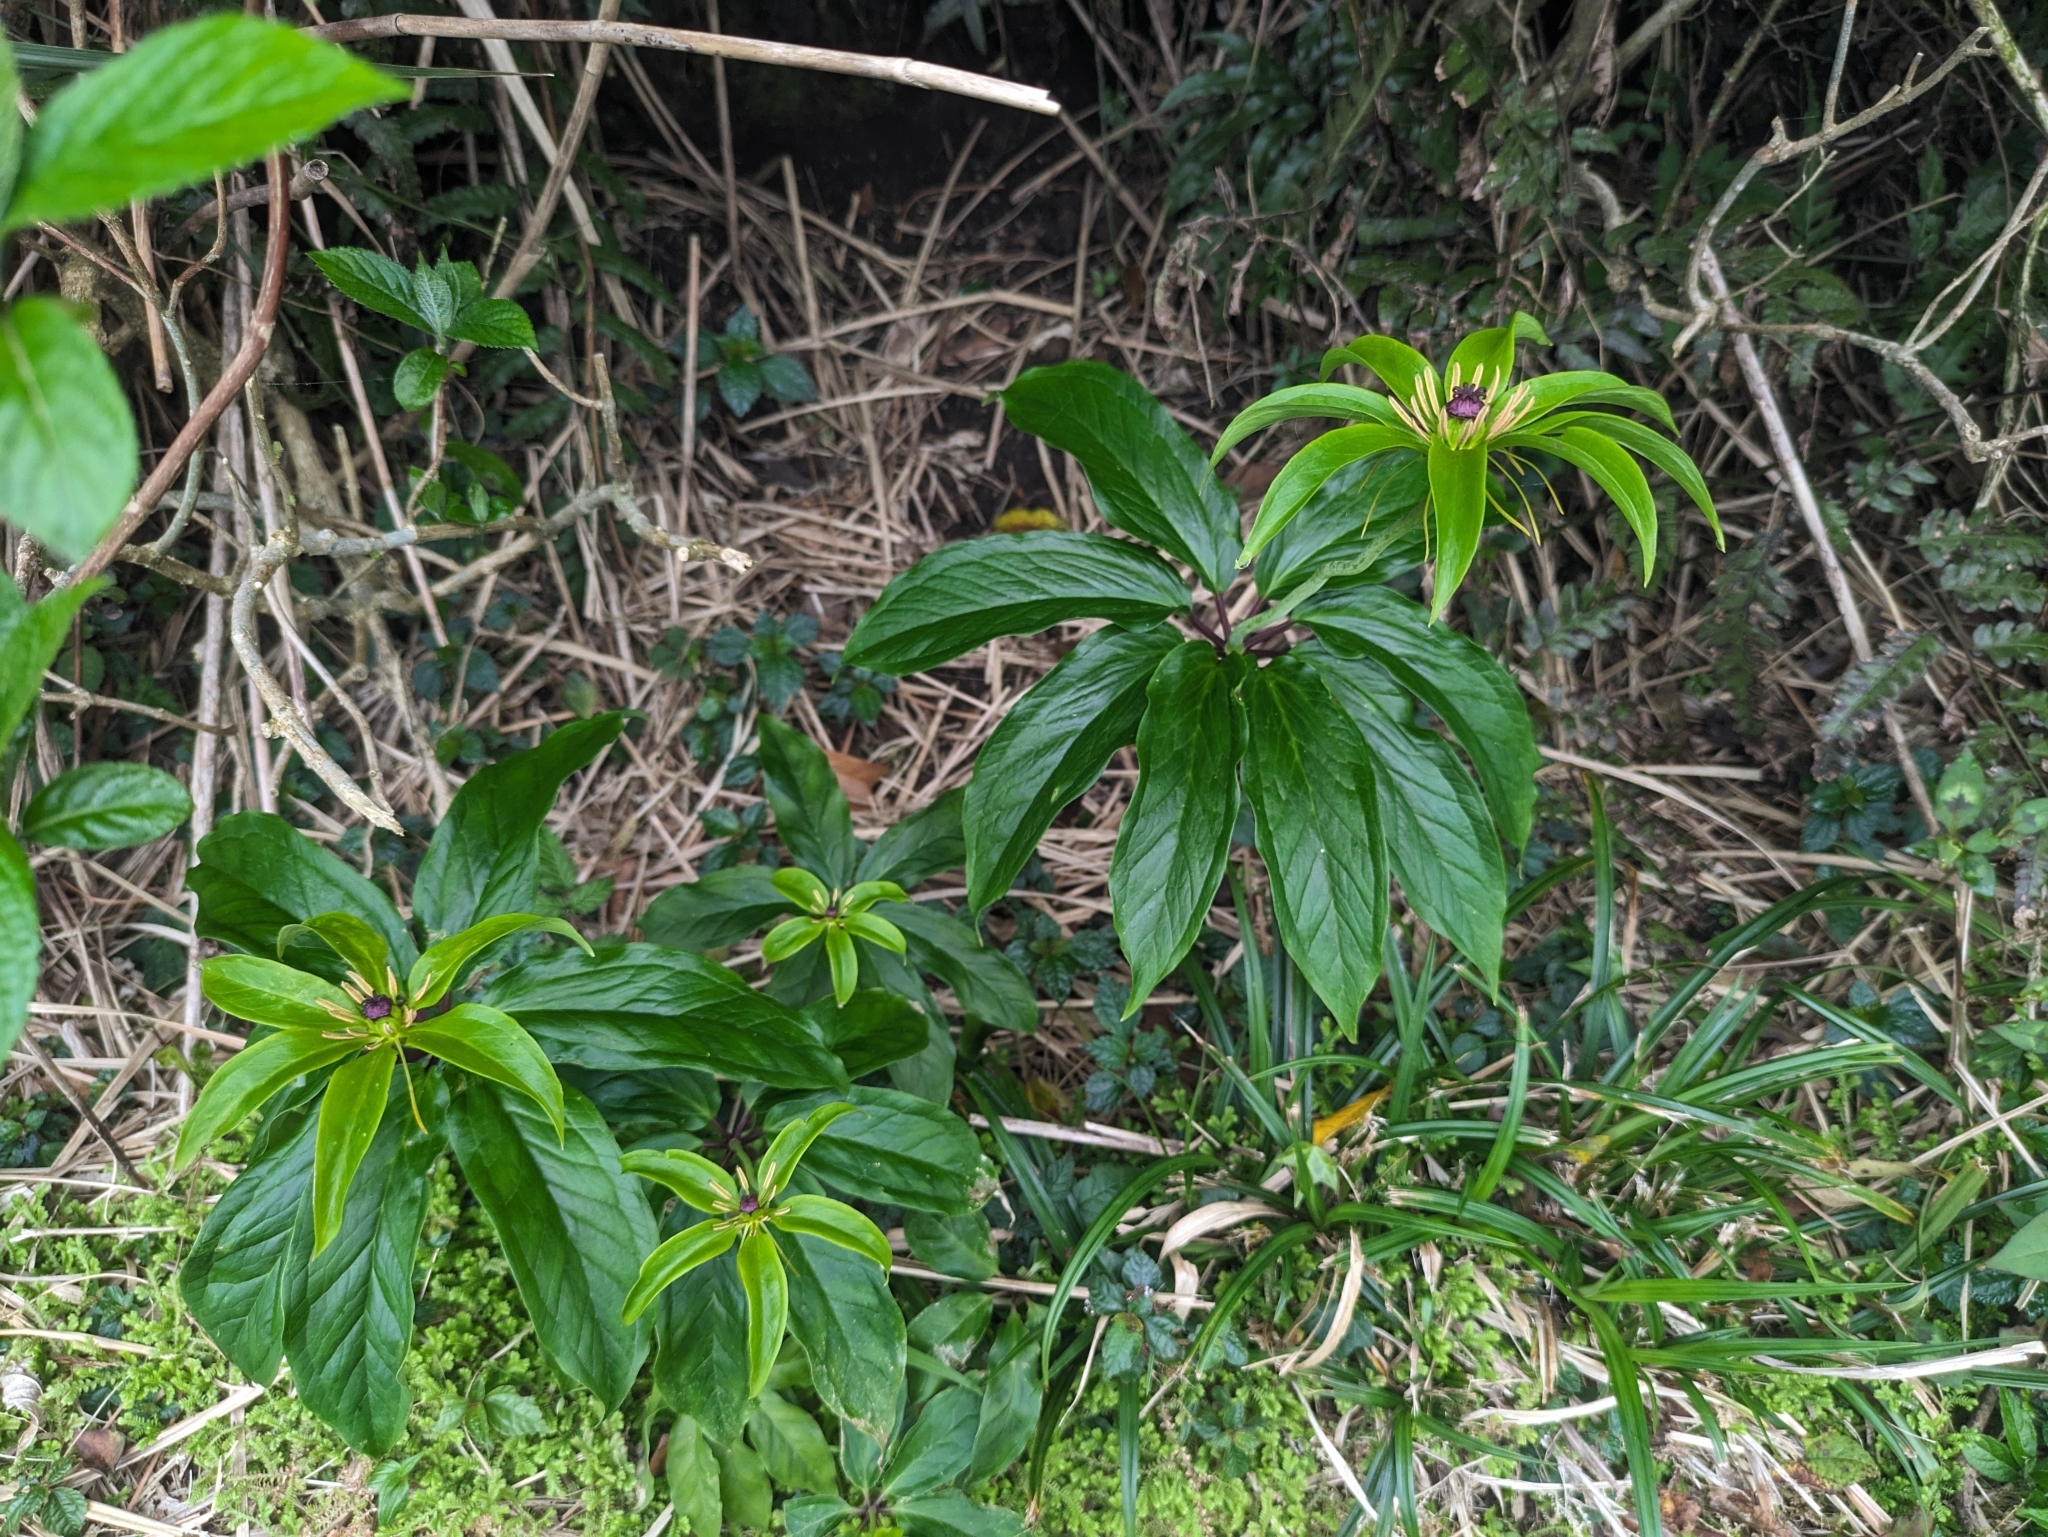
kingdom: Plantae
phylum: Tracheophyta
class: Liliopsida
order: Liliales
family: Melanthiaceae
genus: Paris
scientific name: Paris polyphylla
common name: Love apple
